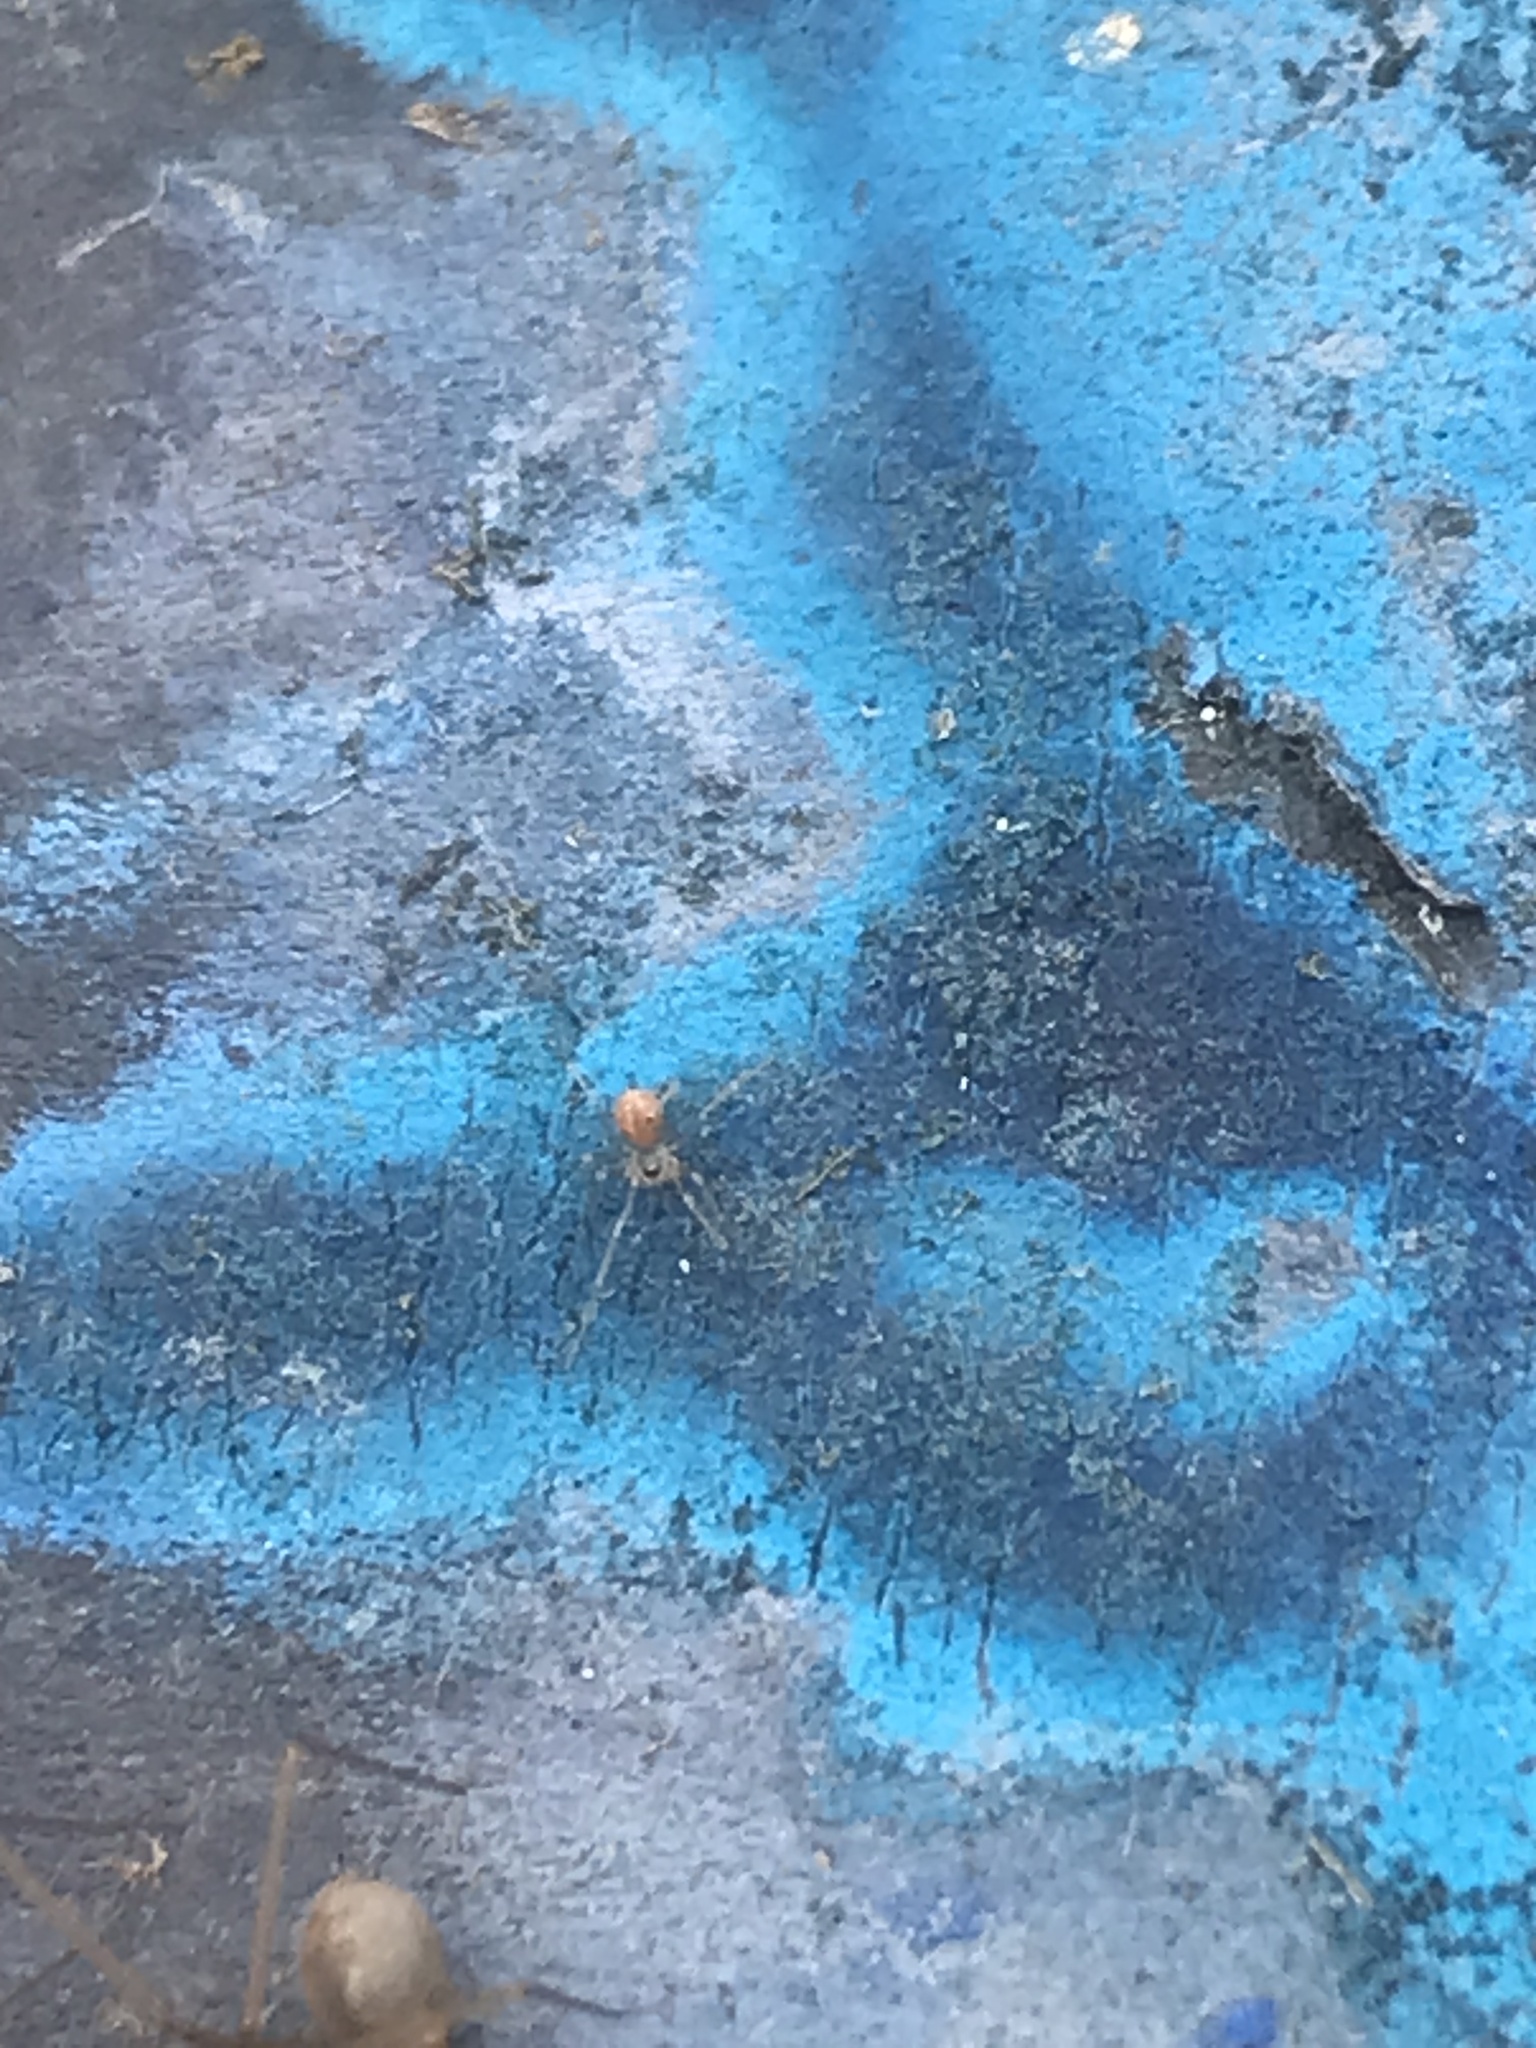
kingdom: Animalia
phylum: Arthropoda
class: Arachnida
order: Araneae
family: Pholcidae
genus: Psilochorus
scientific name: Psilochorus hesperus
